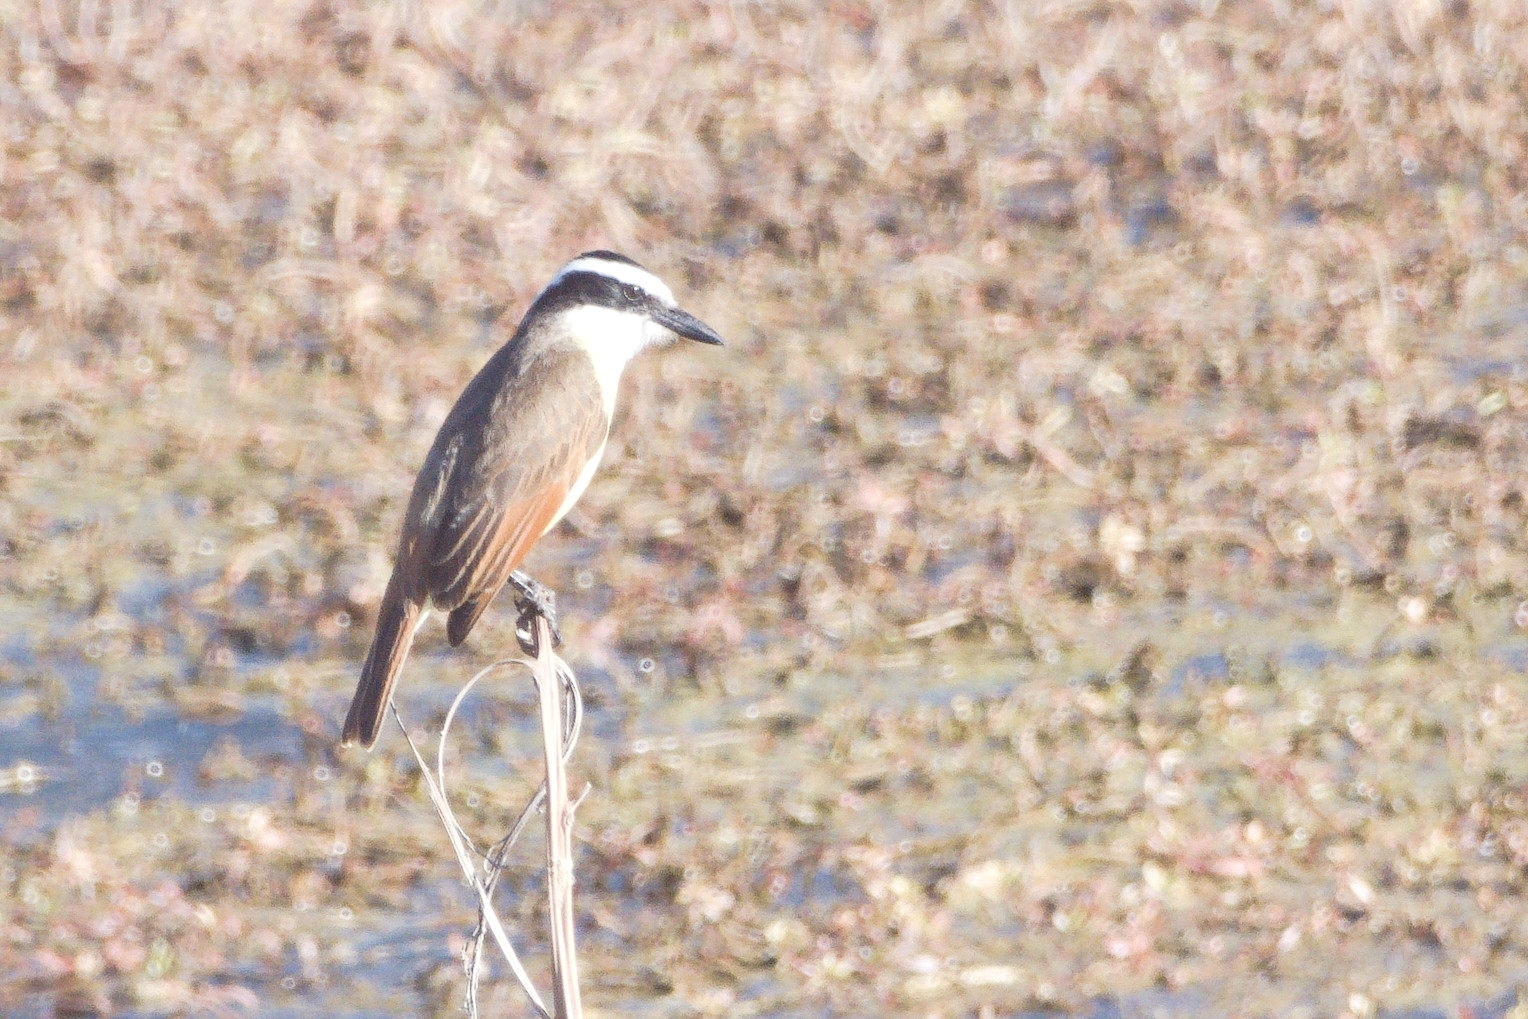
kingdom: Animalia
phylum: Chordata
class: Aves
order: Passeriformes
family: Tyrannidae
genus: Pitangus
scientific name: Pitangus sulphuratus
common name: Great kiskadee
